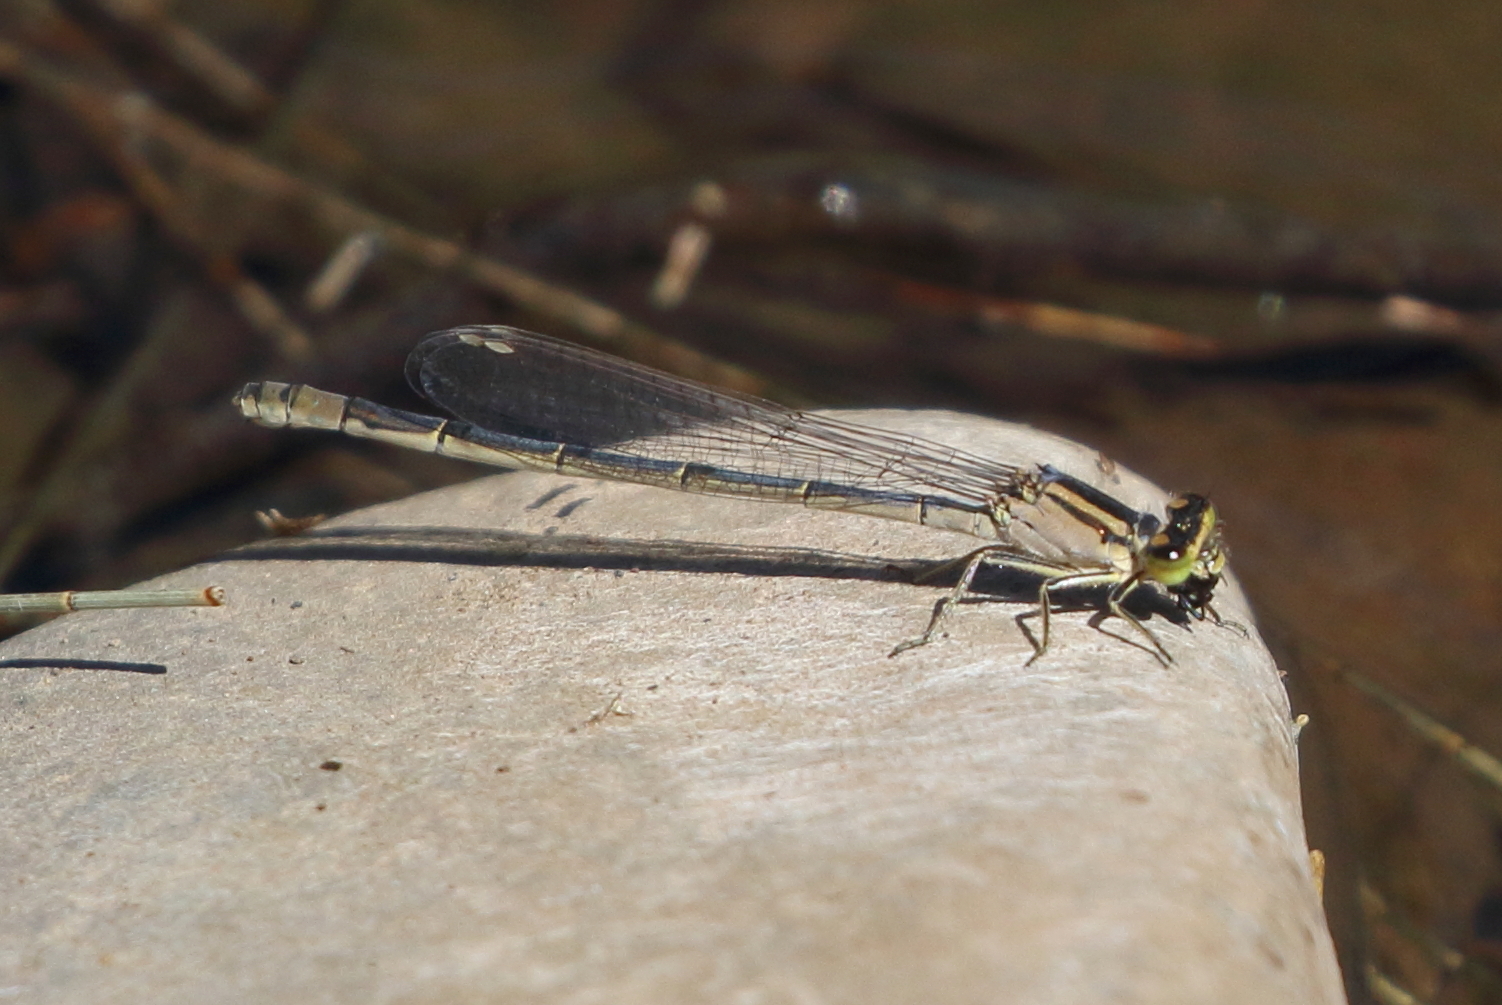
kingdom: Animalia
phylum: Arthropoda
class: Insecta
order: Odonata
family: Coenagrionidae
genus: Ischnura
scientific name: Ischnura heterosticta
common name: Common bluetail
